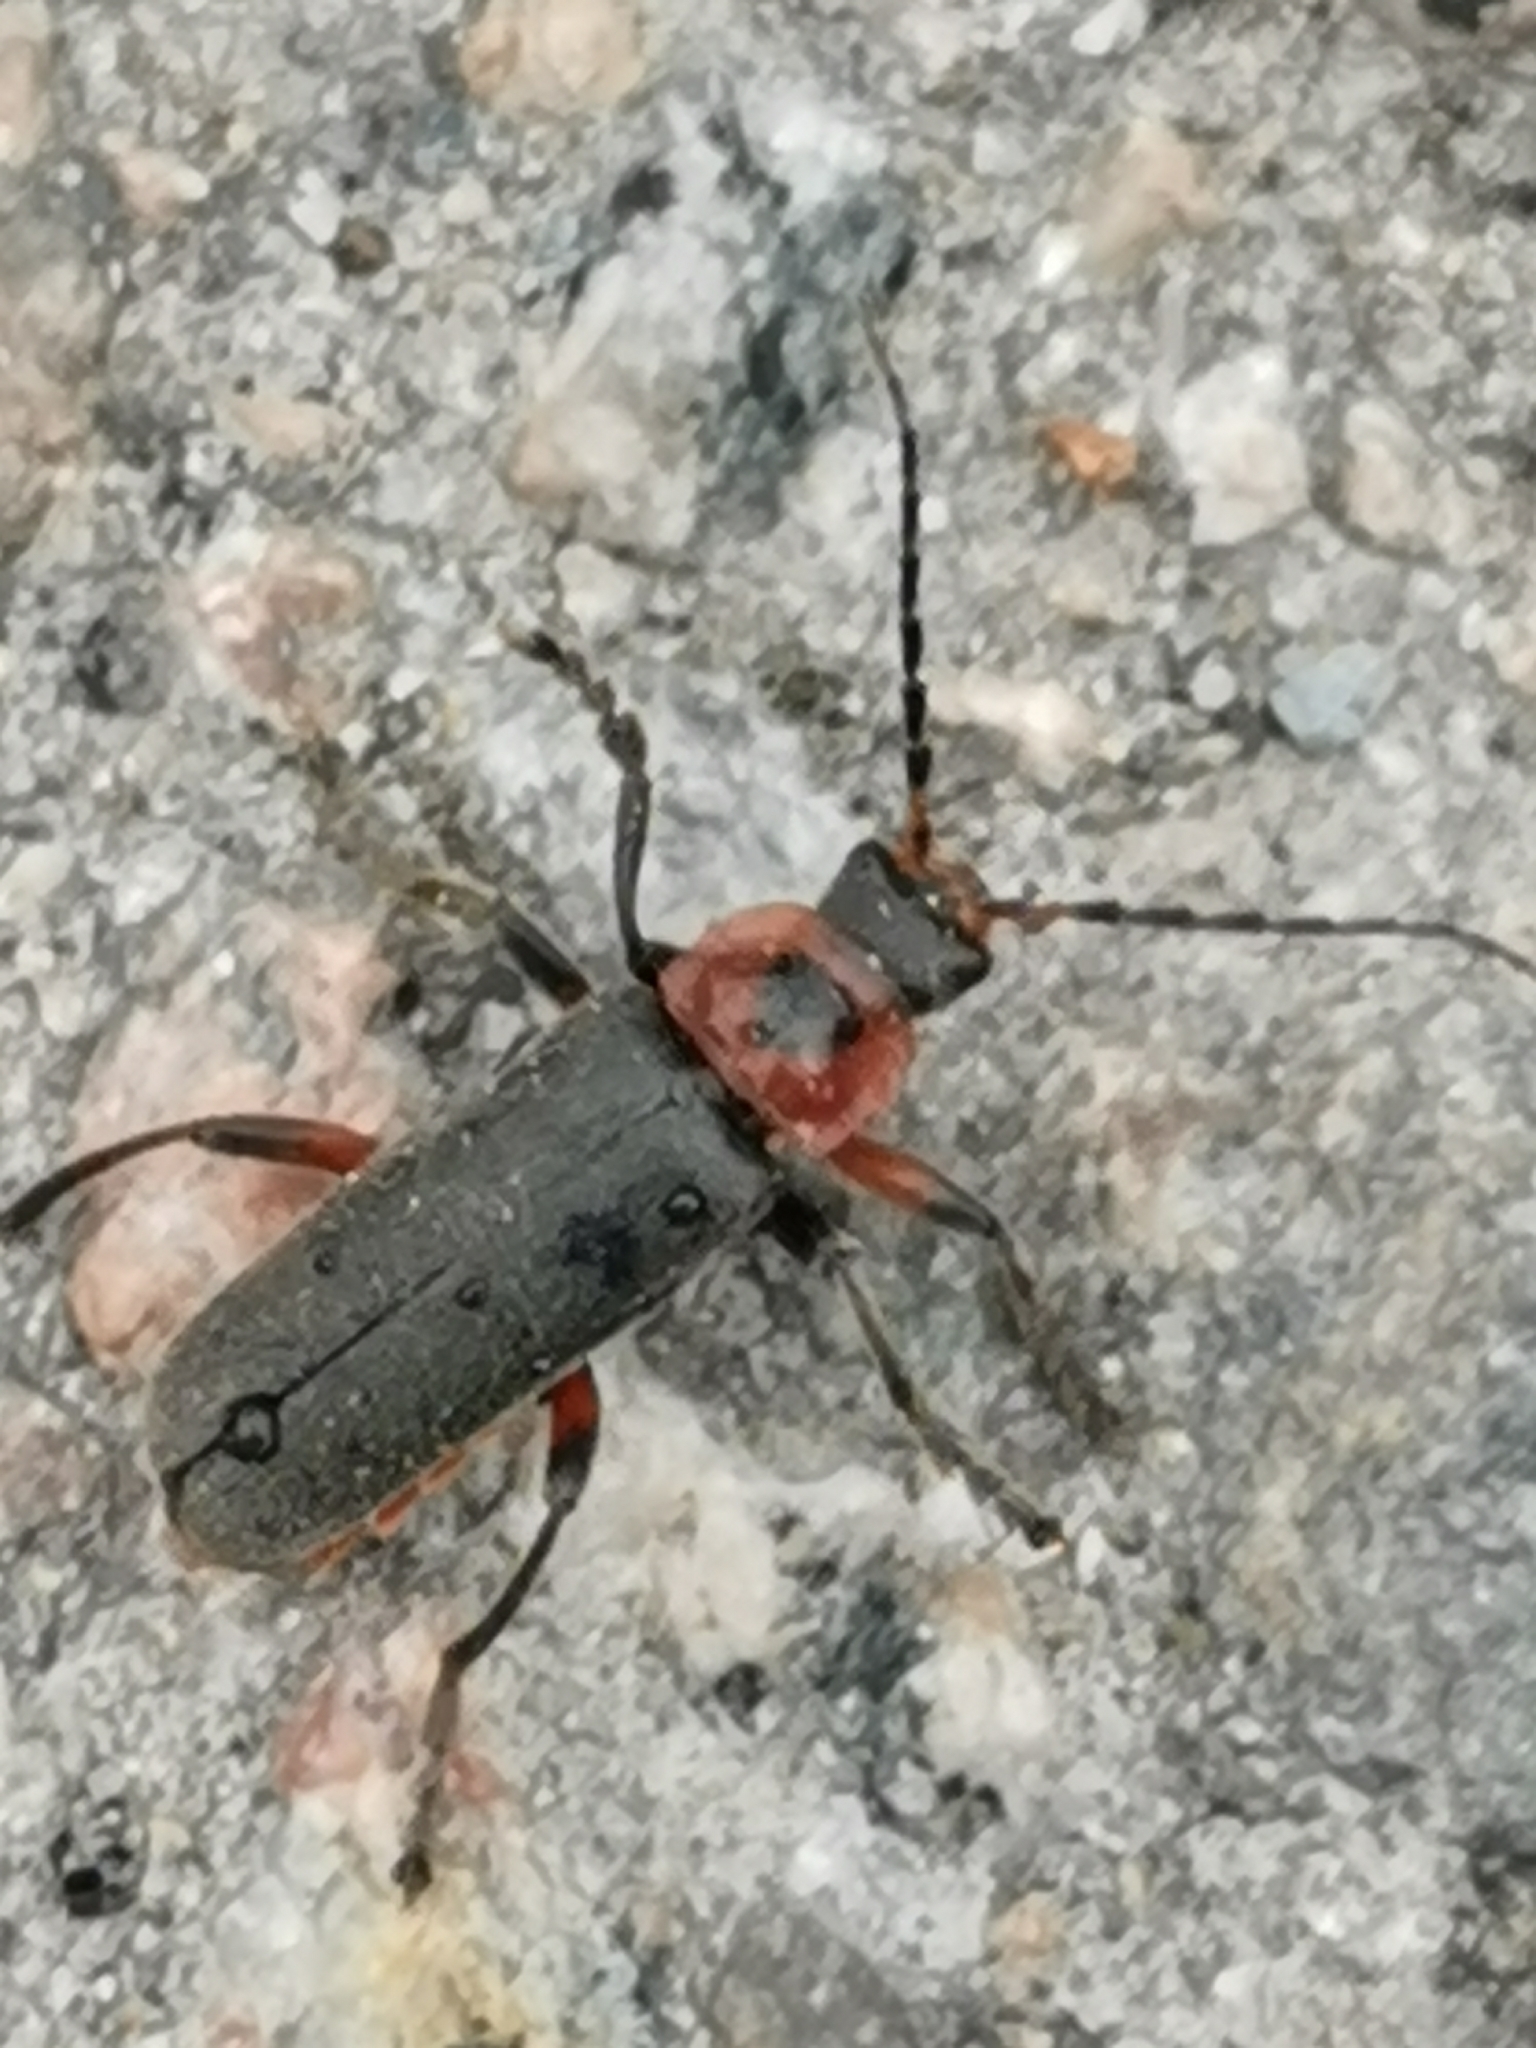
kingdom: Animalia
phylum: Arthropoda
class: Insecta
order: Coleoptera
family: Cantharidae
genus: Cantharis
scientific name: Cantharis rustica
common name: Soldier beetle
